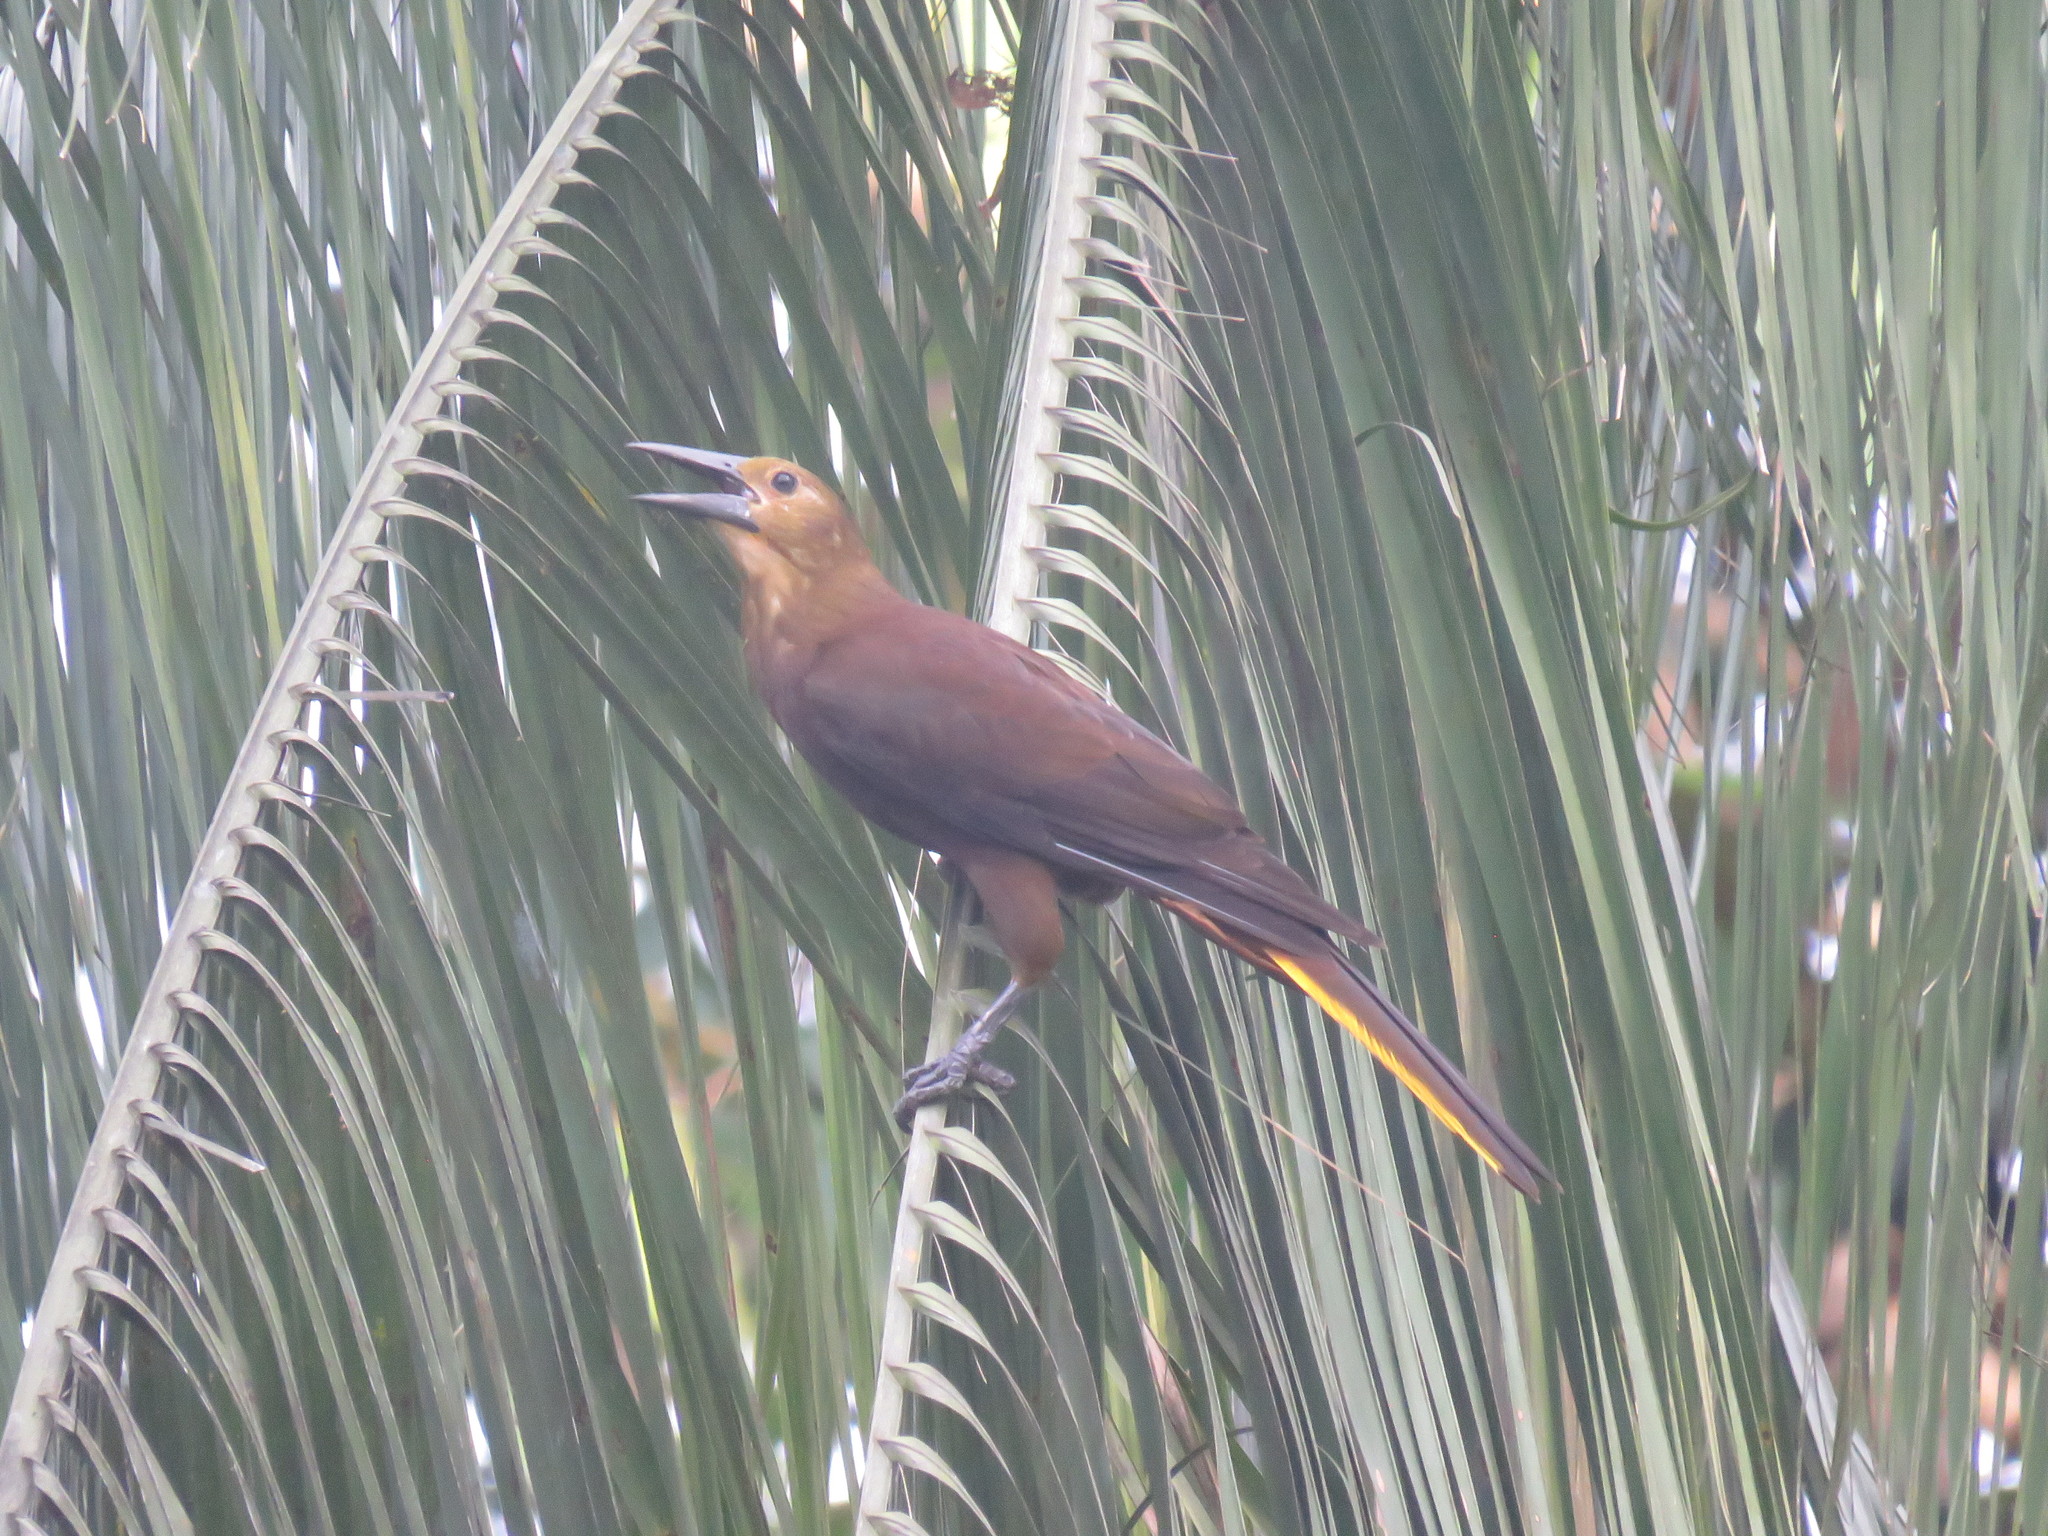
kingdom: Animalia
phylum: Chordata
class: Aves
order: Passeriformes
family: Icteridae
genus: Psarocolius
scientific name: Psarocolius angustifrons
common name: Russet-backed oropendola
